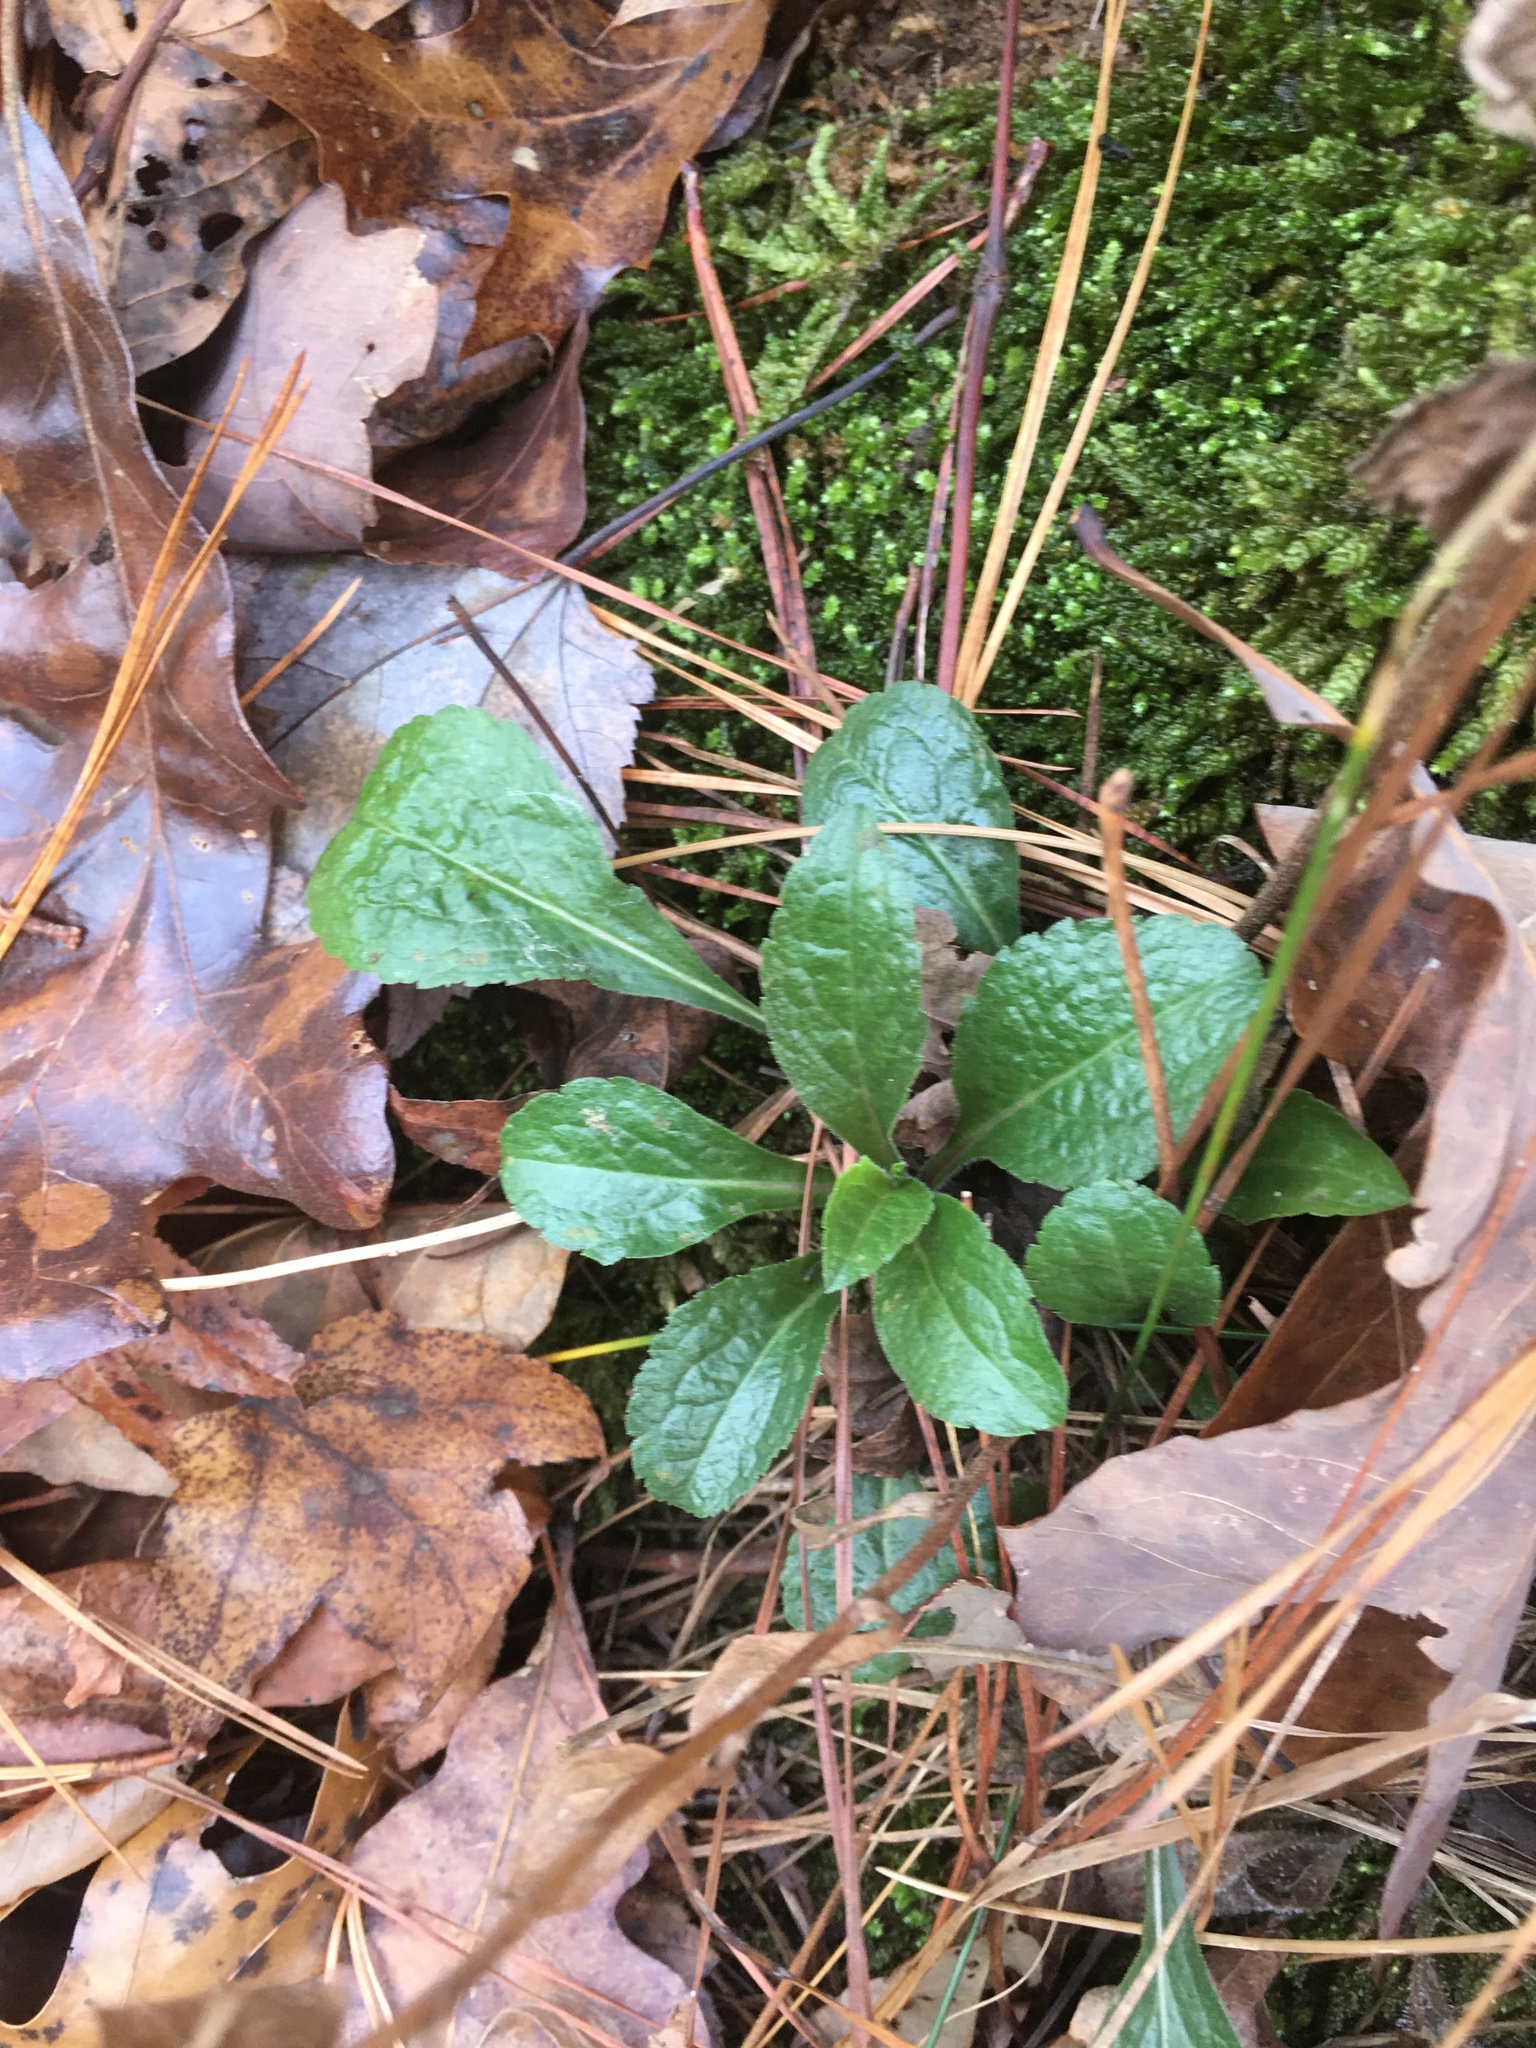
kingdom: Plantae
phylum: Tracheophyta
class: Magnoliopsida
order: Asterales
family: Asteraceae
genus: Solidago
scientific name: Solidago rugosa
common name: Rough-stemmed goldenrod
